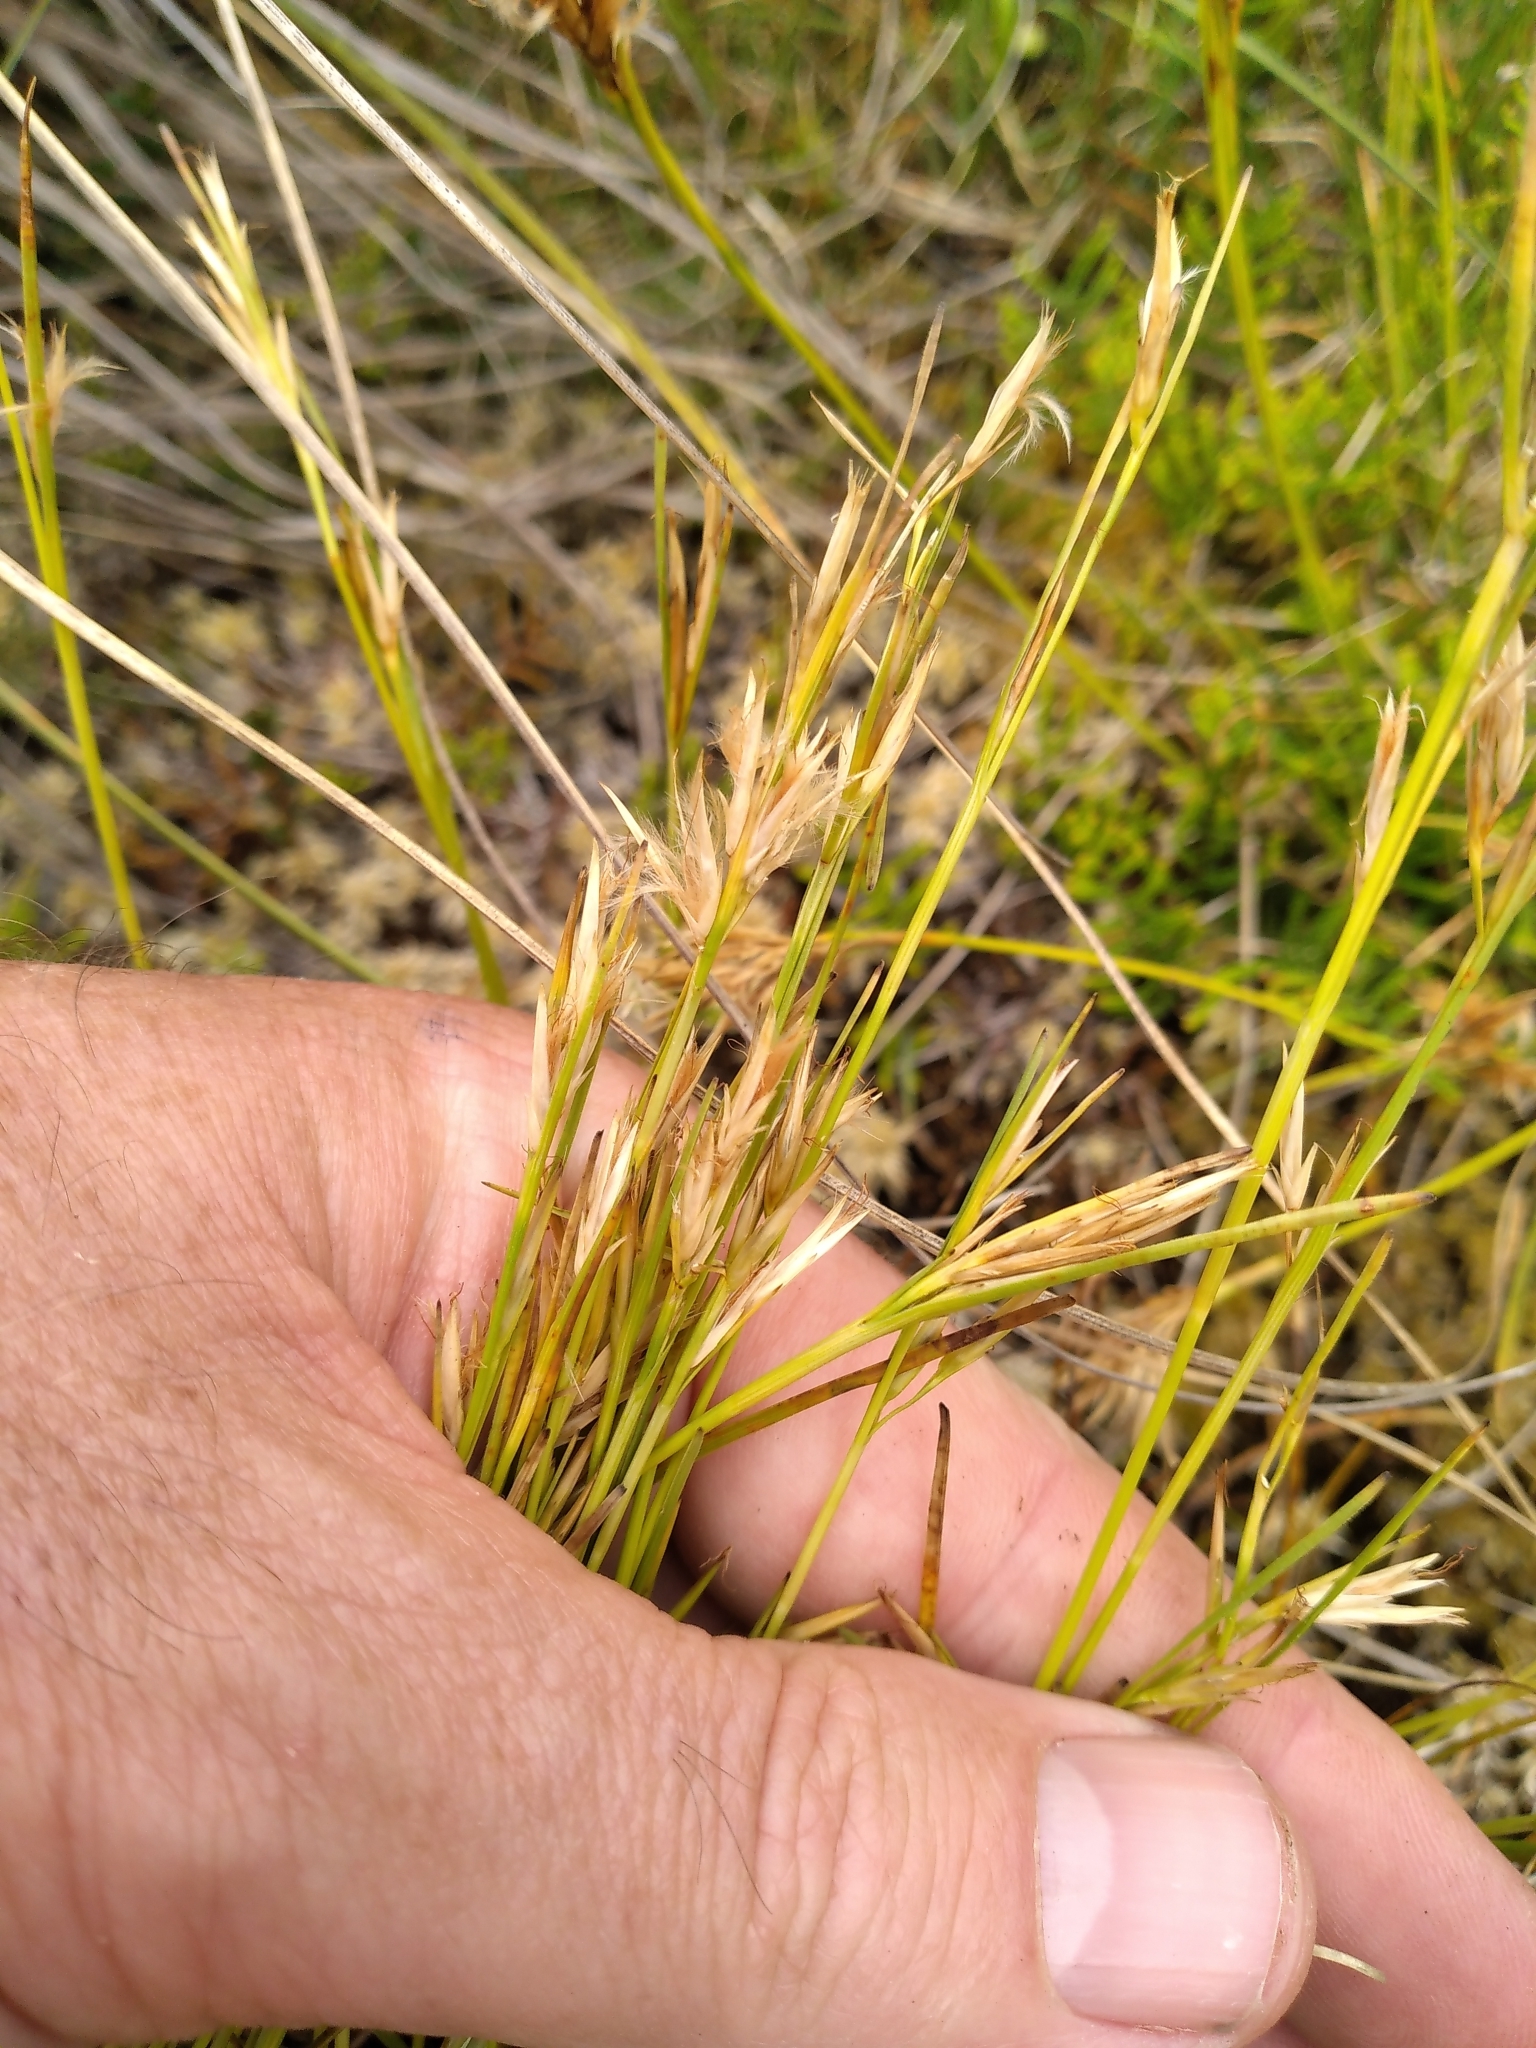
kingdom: Plantae
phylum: Tracheophyta
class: Liliopsida
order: Poales
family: Cyperaceae
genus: Carpha
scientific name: Carpha alpina
